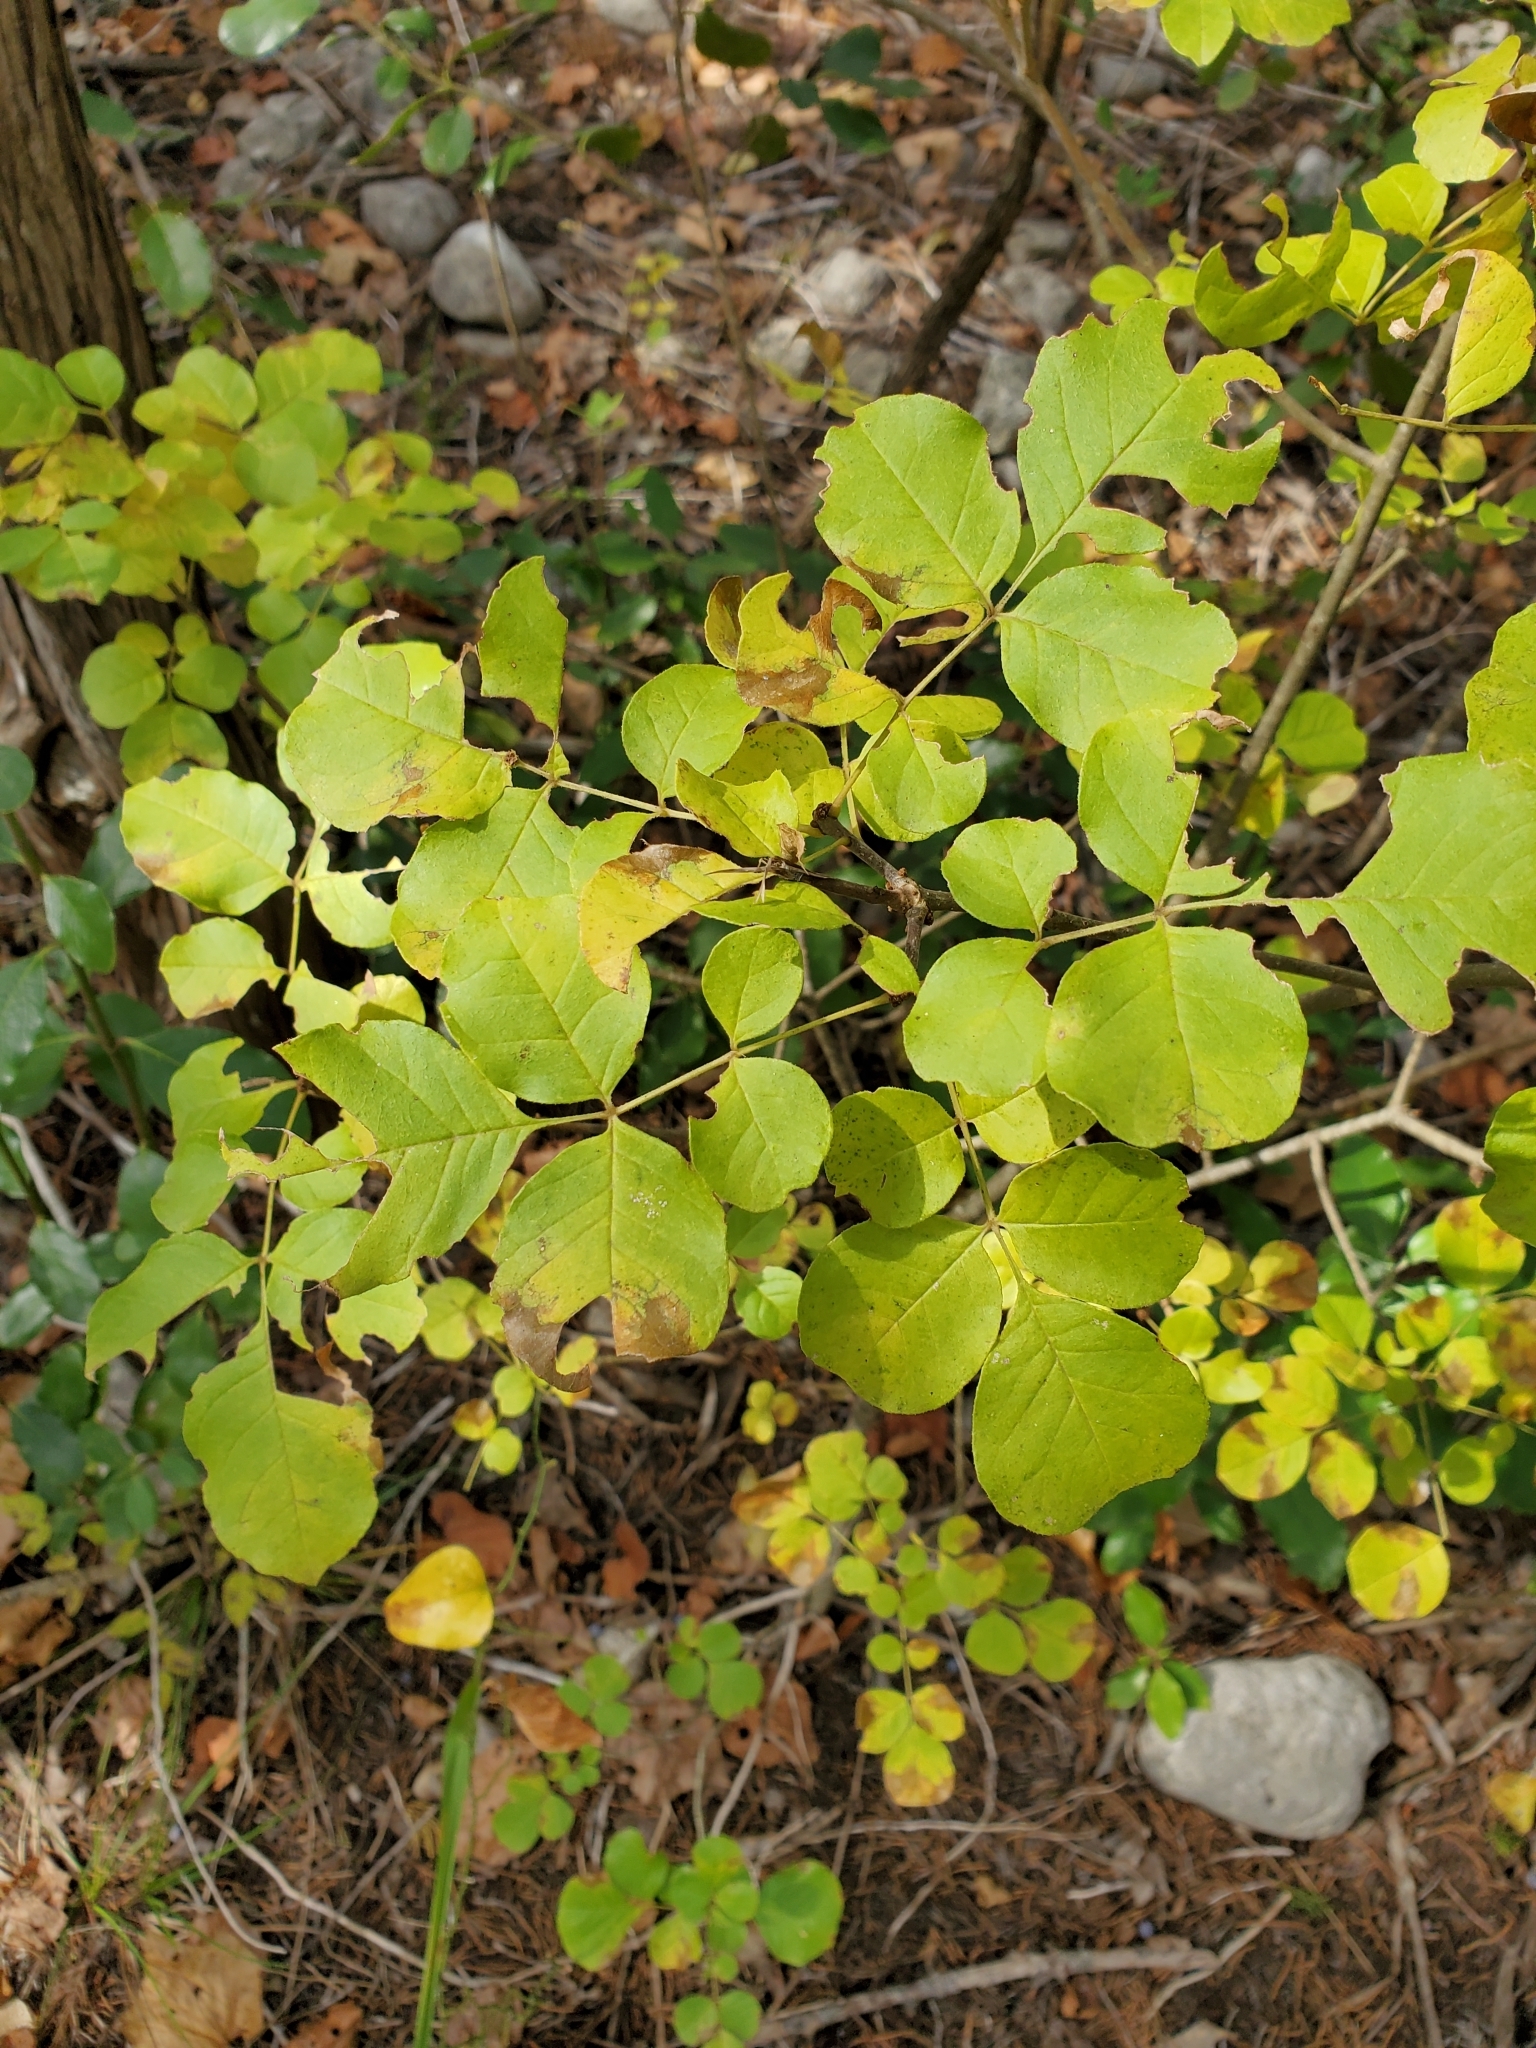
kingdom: Plantae
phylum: Tracheophyta
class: Magnoliopsida
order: Lamiales
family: Oleaceae
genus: Fraxinus
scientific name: Fraxinus albicans
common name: Texas ash
